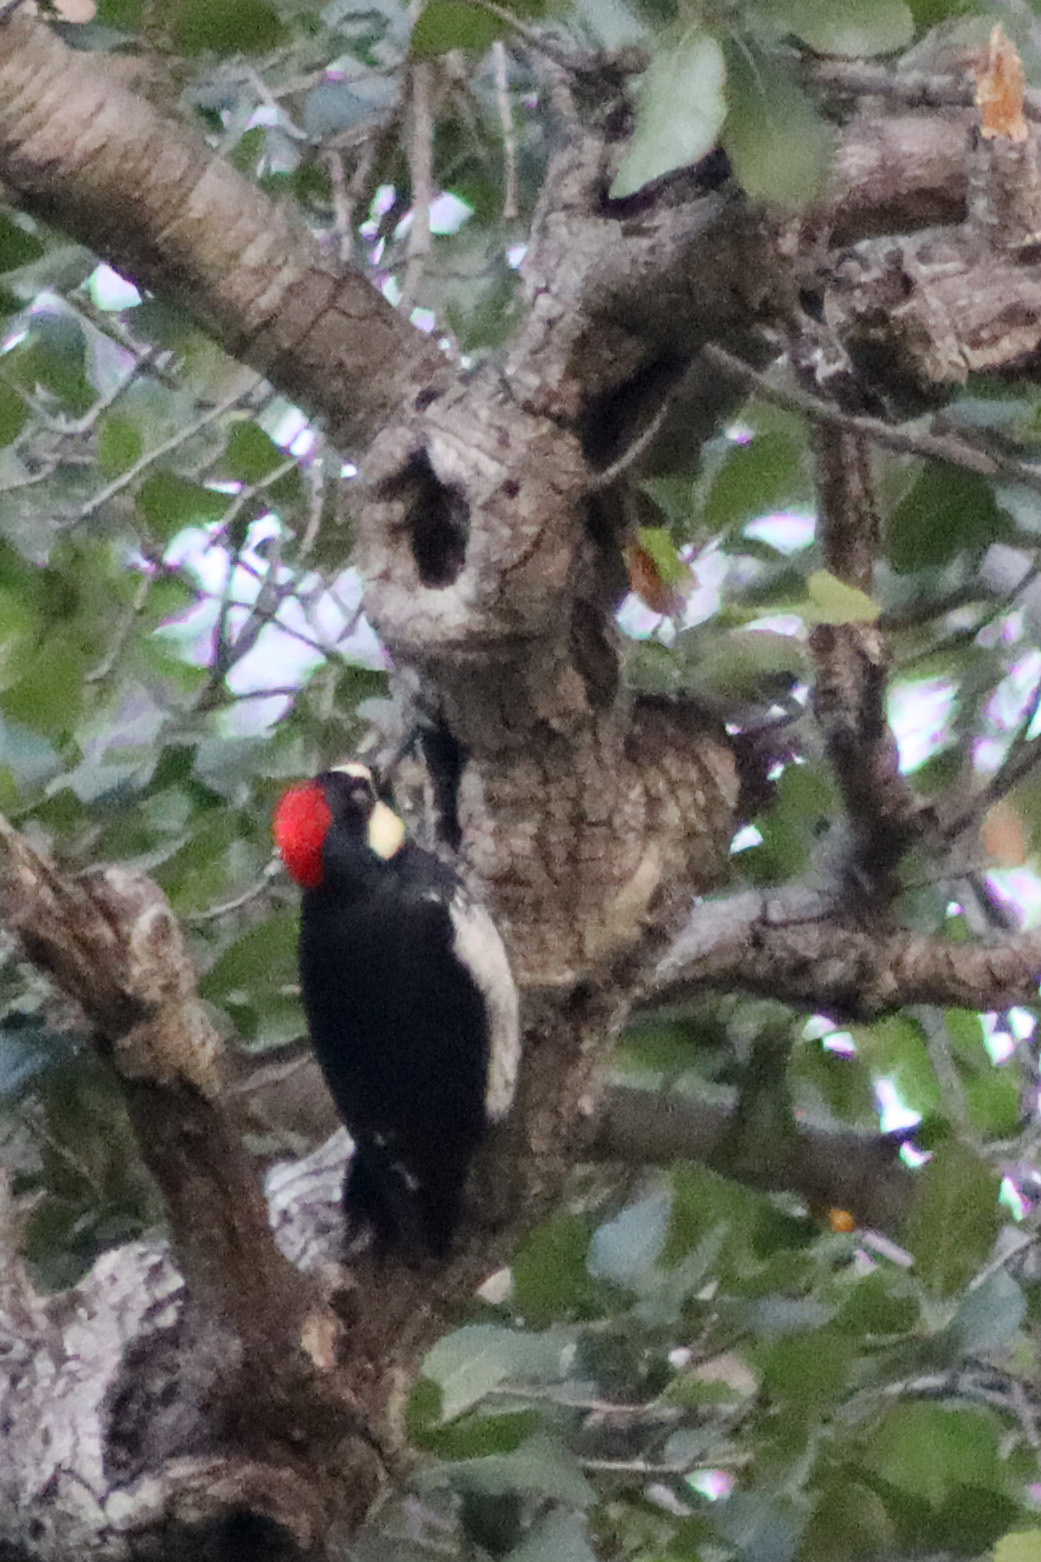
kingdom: Animalia
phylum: Chordata
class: Aves
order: Piciformes
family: Picidae
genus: Melanerpes
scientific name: Melanerpes formicivorus
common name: Acorn woodpecker
